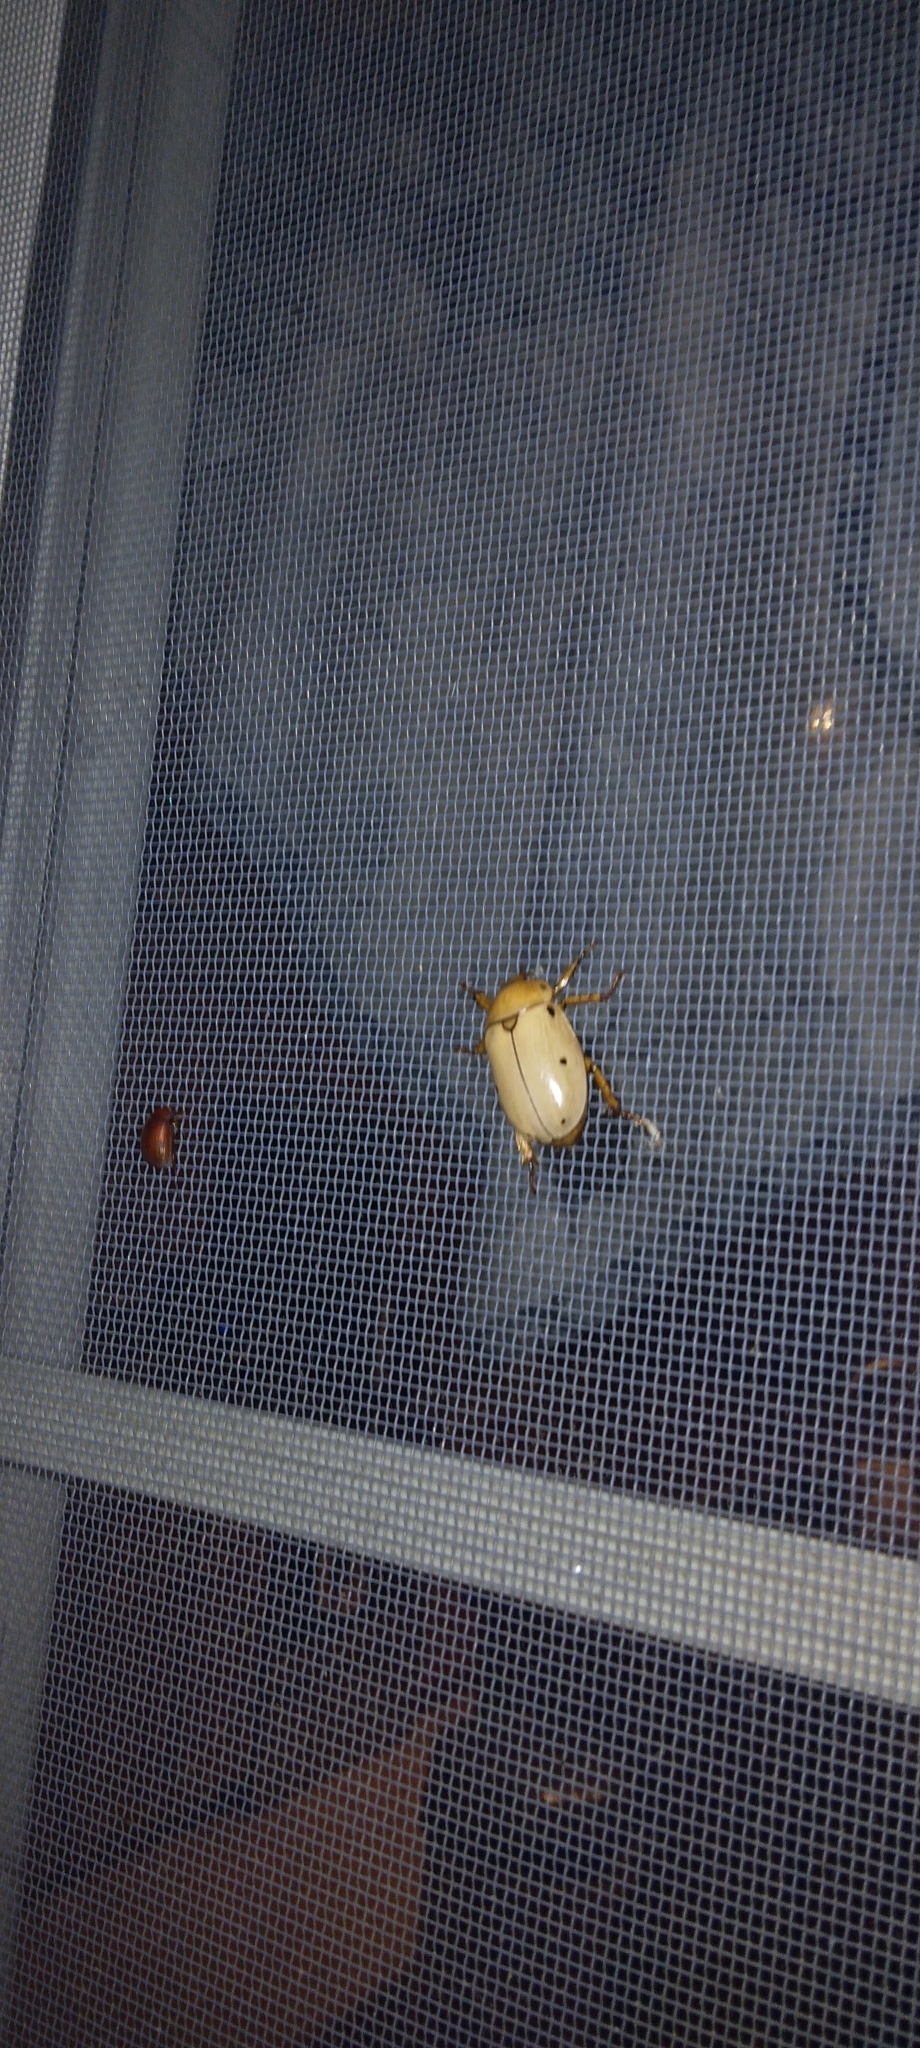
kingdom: Animalia
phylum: Arthropoda
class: Insecta
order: Coleoptera
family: Scarabaeidae
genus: Pelidnota
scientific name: Pelidnota punctata
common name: Grapevine beetle
